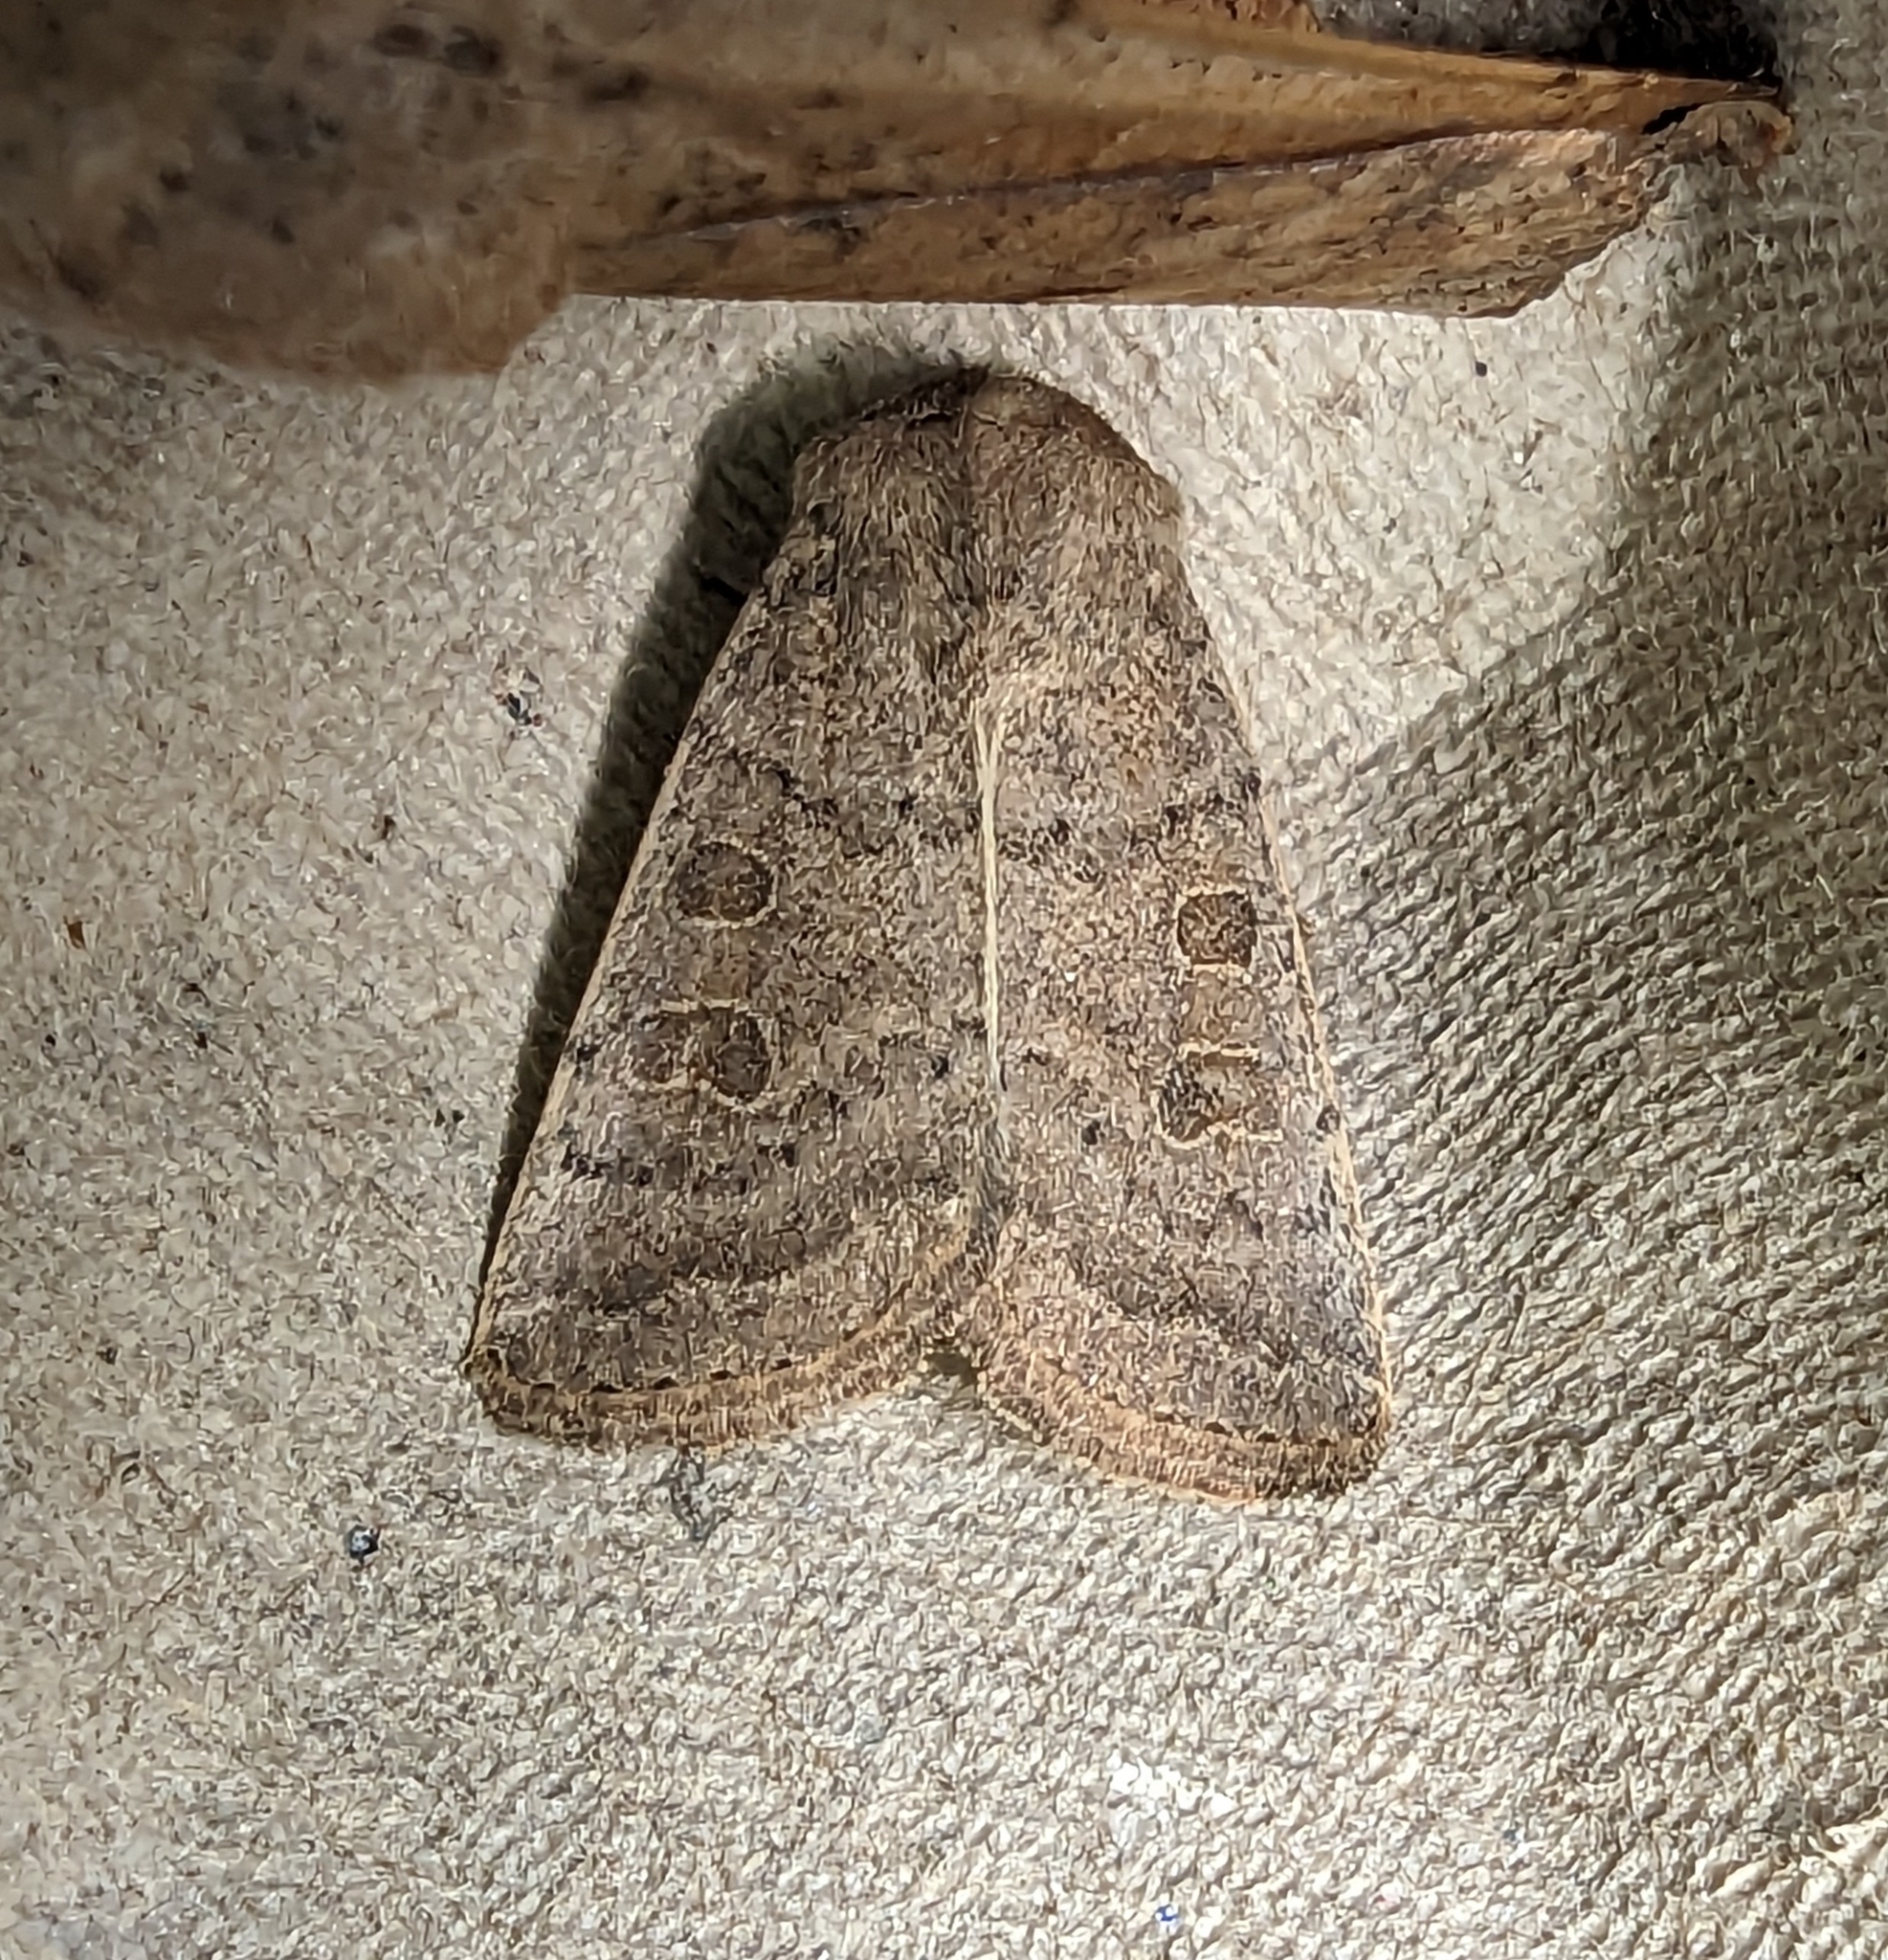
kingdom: Animalia
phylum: Arthropoda
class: Insecta
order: Lepidoptera
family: Noctuidae
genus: Hoplodrina
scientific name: Hoplodrina ambigua
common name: Vine's rustic
